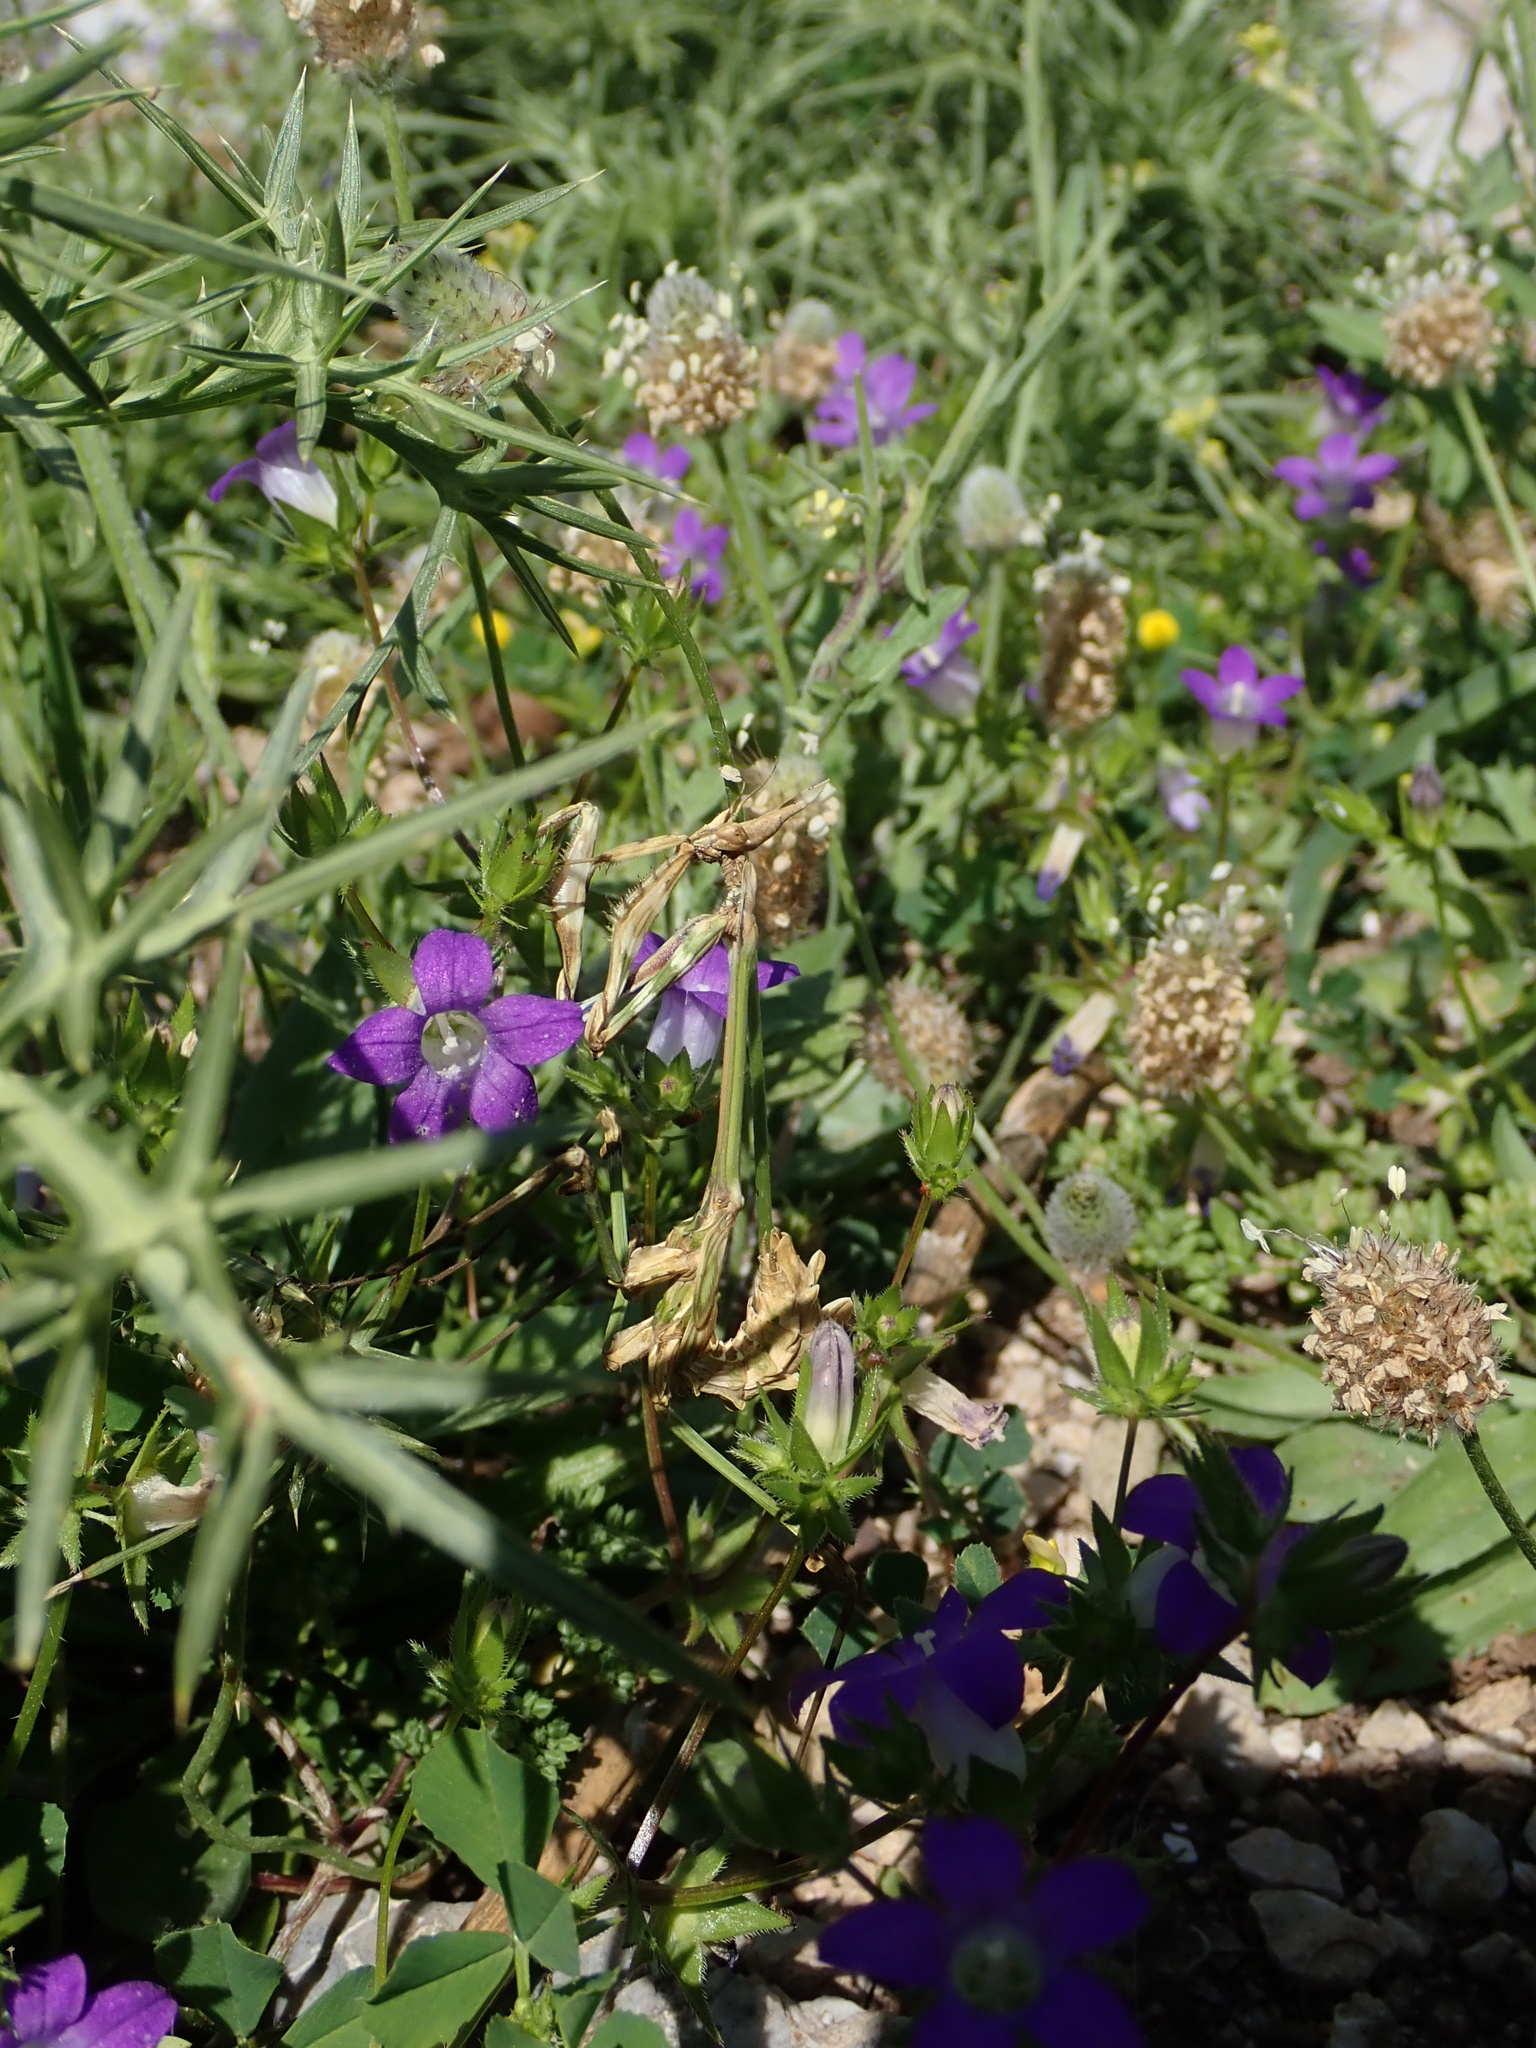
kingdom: Animalia
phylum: Arthropoda
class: Insecta
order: Mantodea
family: Empusidae
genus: Empusa
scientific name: Empusa fasciata
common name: Devil's mare
